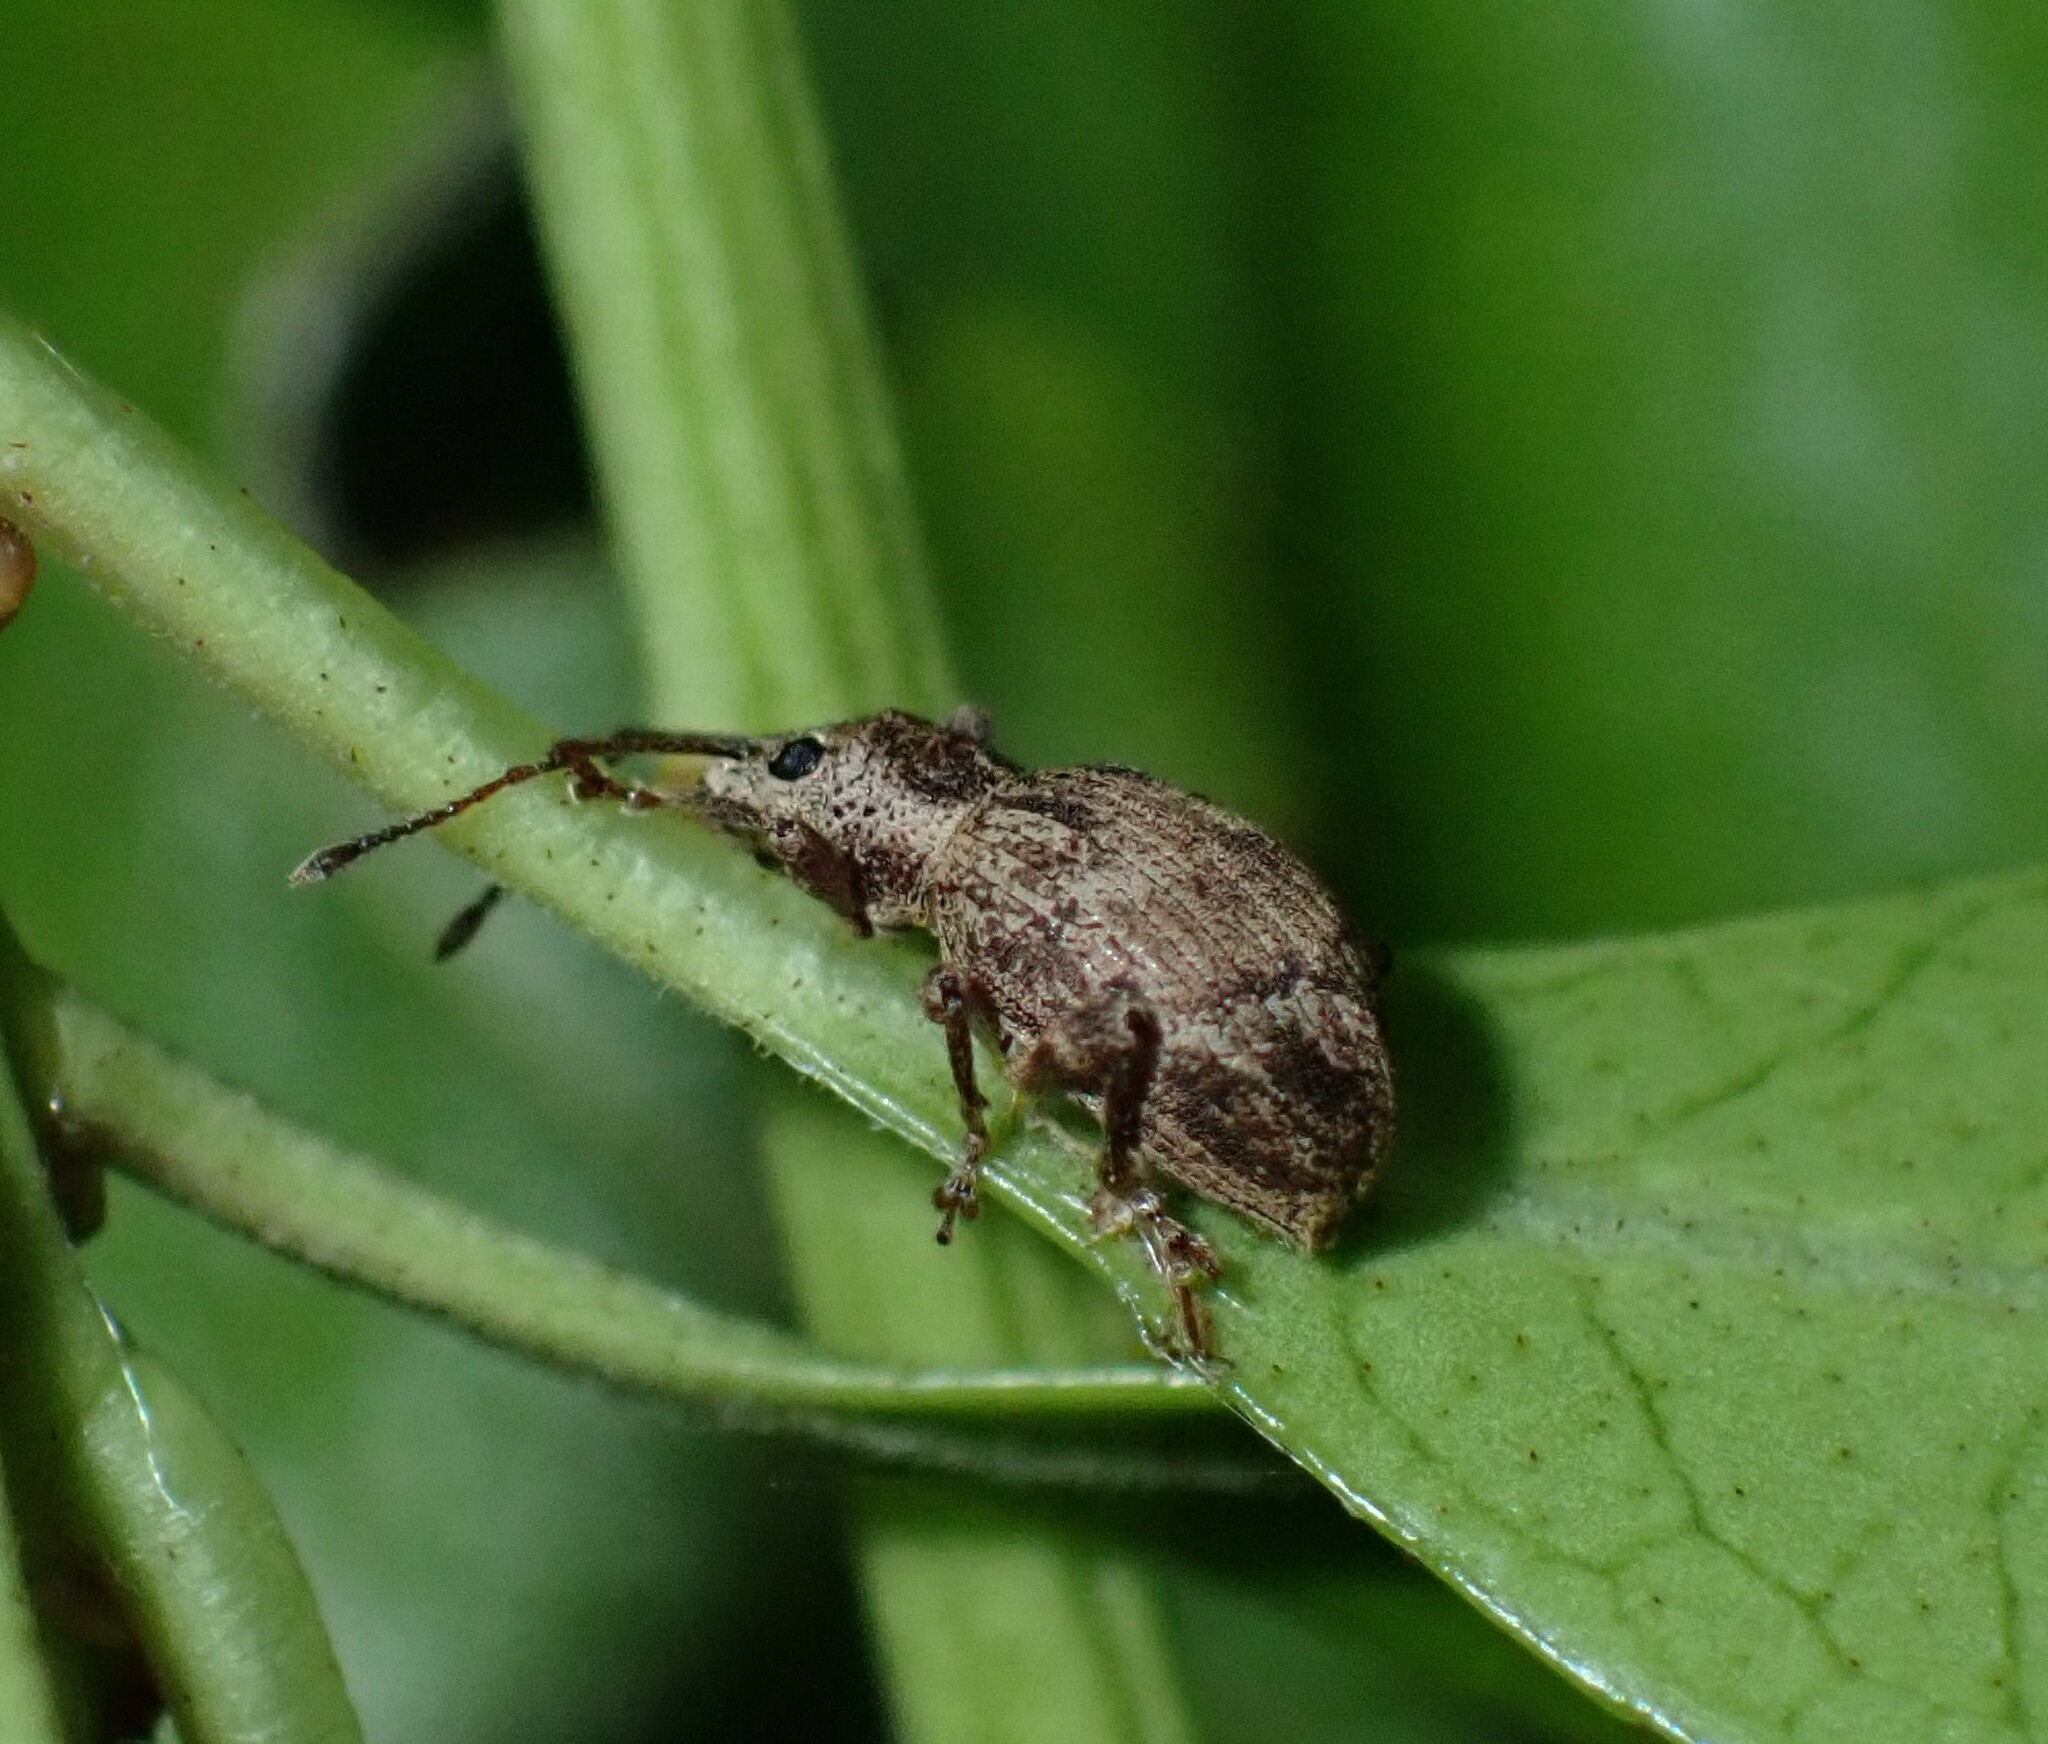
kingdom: Animalia
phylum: Arthropoda
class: Insecta
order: Coleoptera
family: Curculionidae
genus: Sciopithes
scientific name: Sciopithes obscurus
